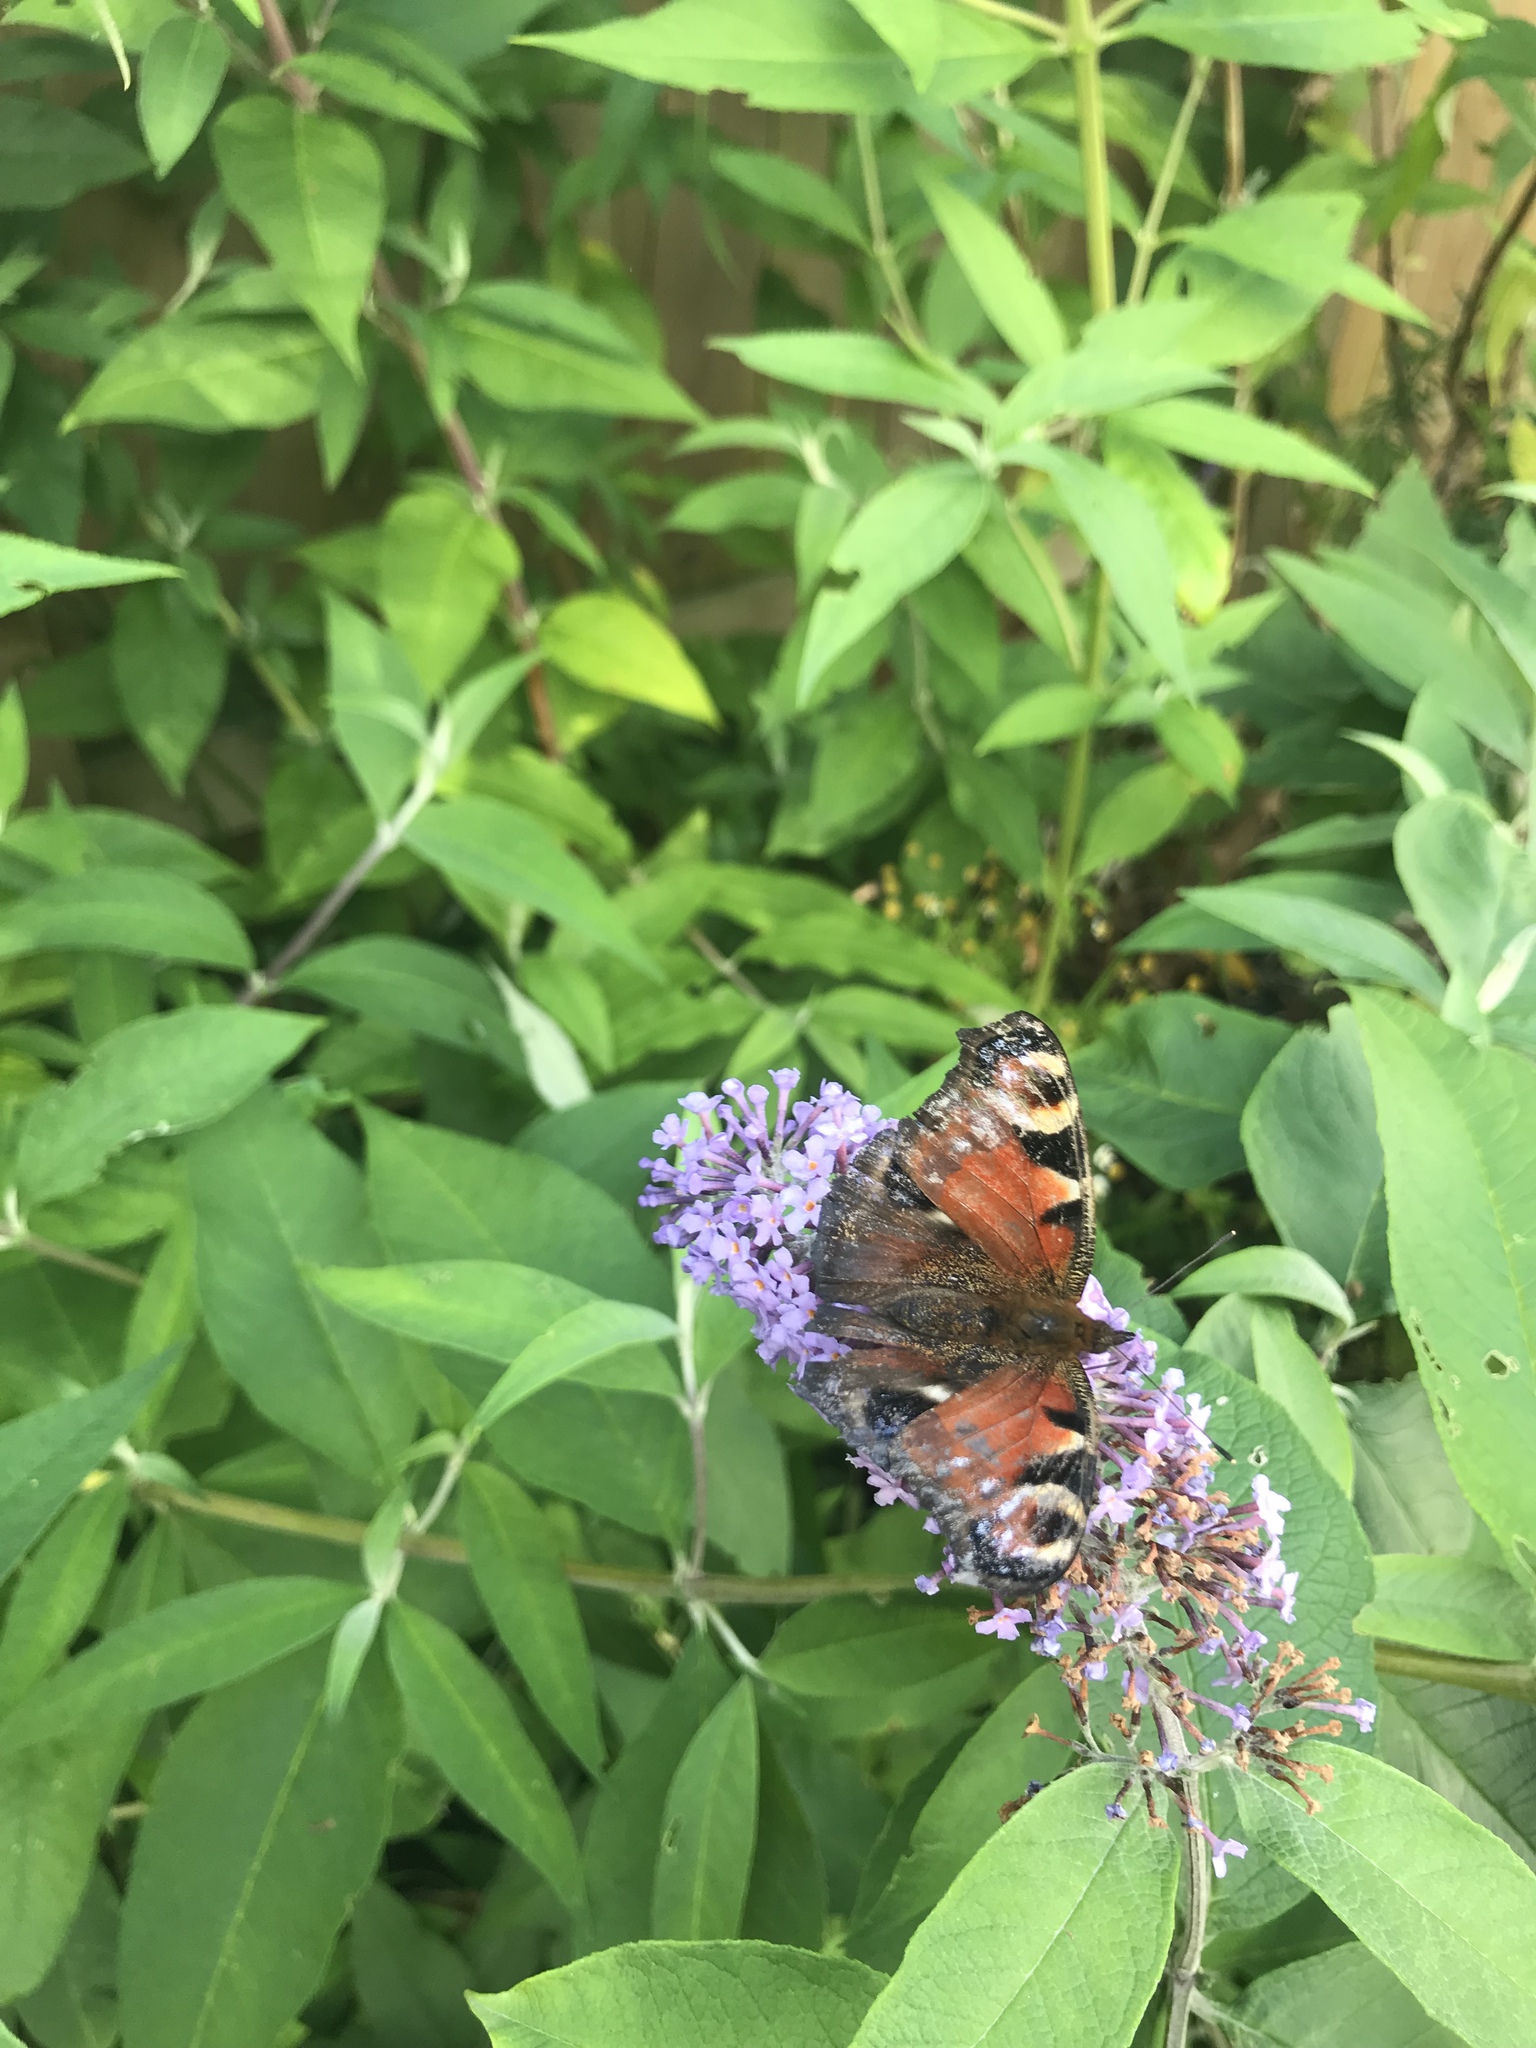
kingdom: Animalia
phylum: Arthropoda
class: Insecta
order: Lepidoptera
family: Nymphalidae
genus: Aglais
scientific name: Aglais io
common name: Peacock
